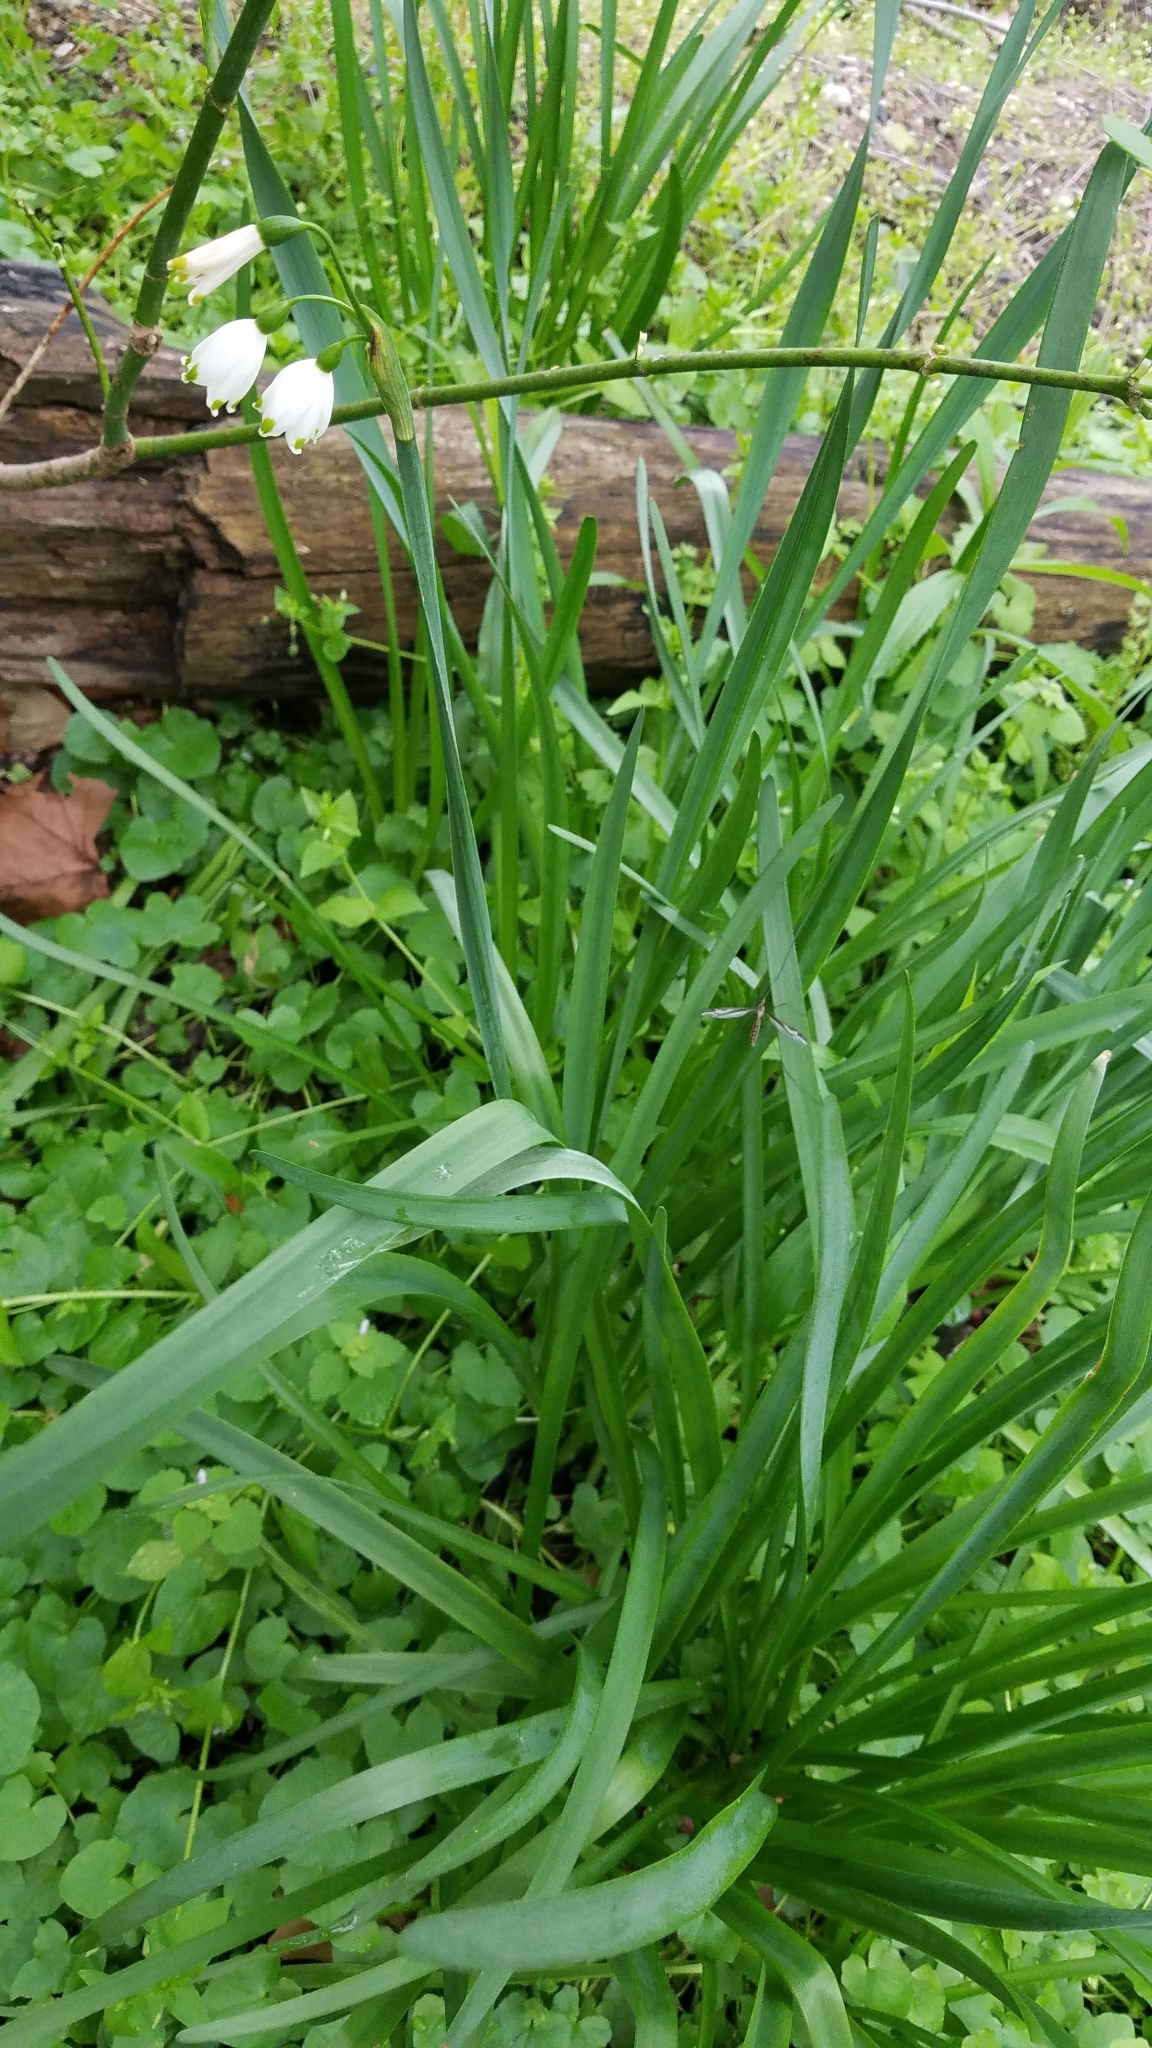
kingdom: Plantae
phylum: Tracheophyta
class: Liliopsida
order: Asparagales
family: Amaryllidaceae
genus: Leucojum
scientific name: Leucojum aestivum
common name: Summer snowflake
